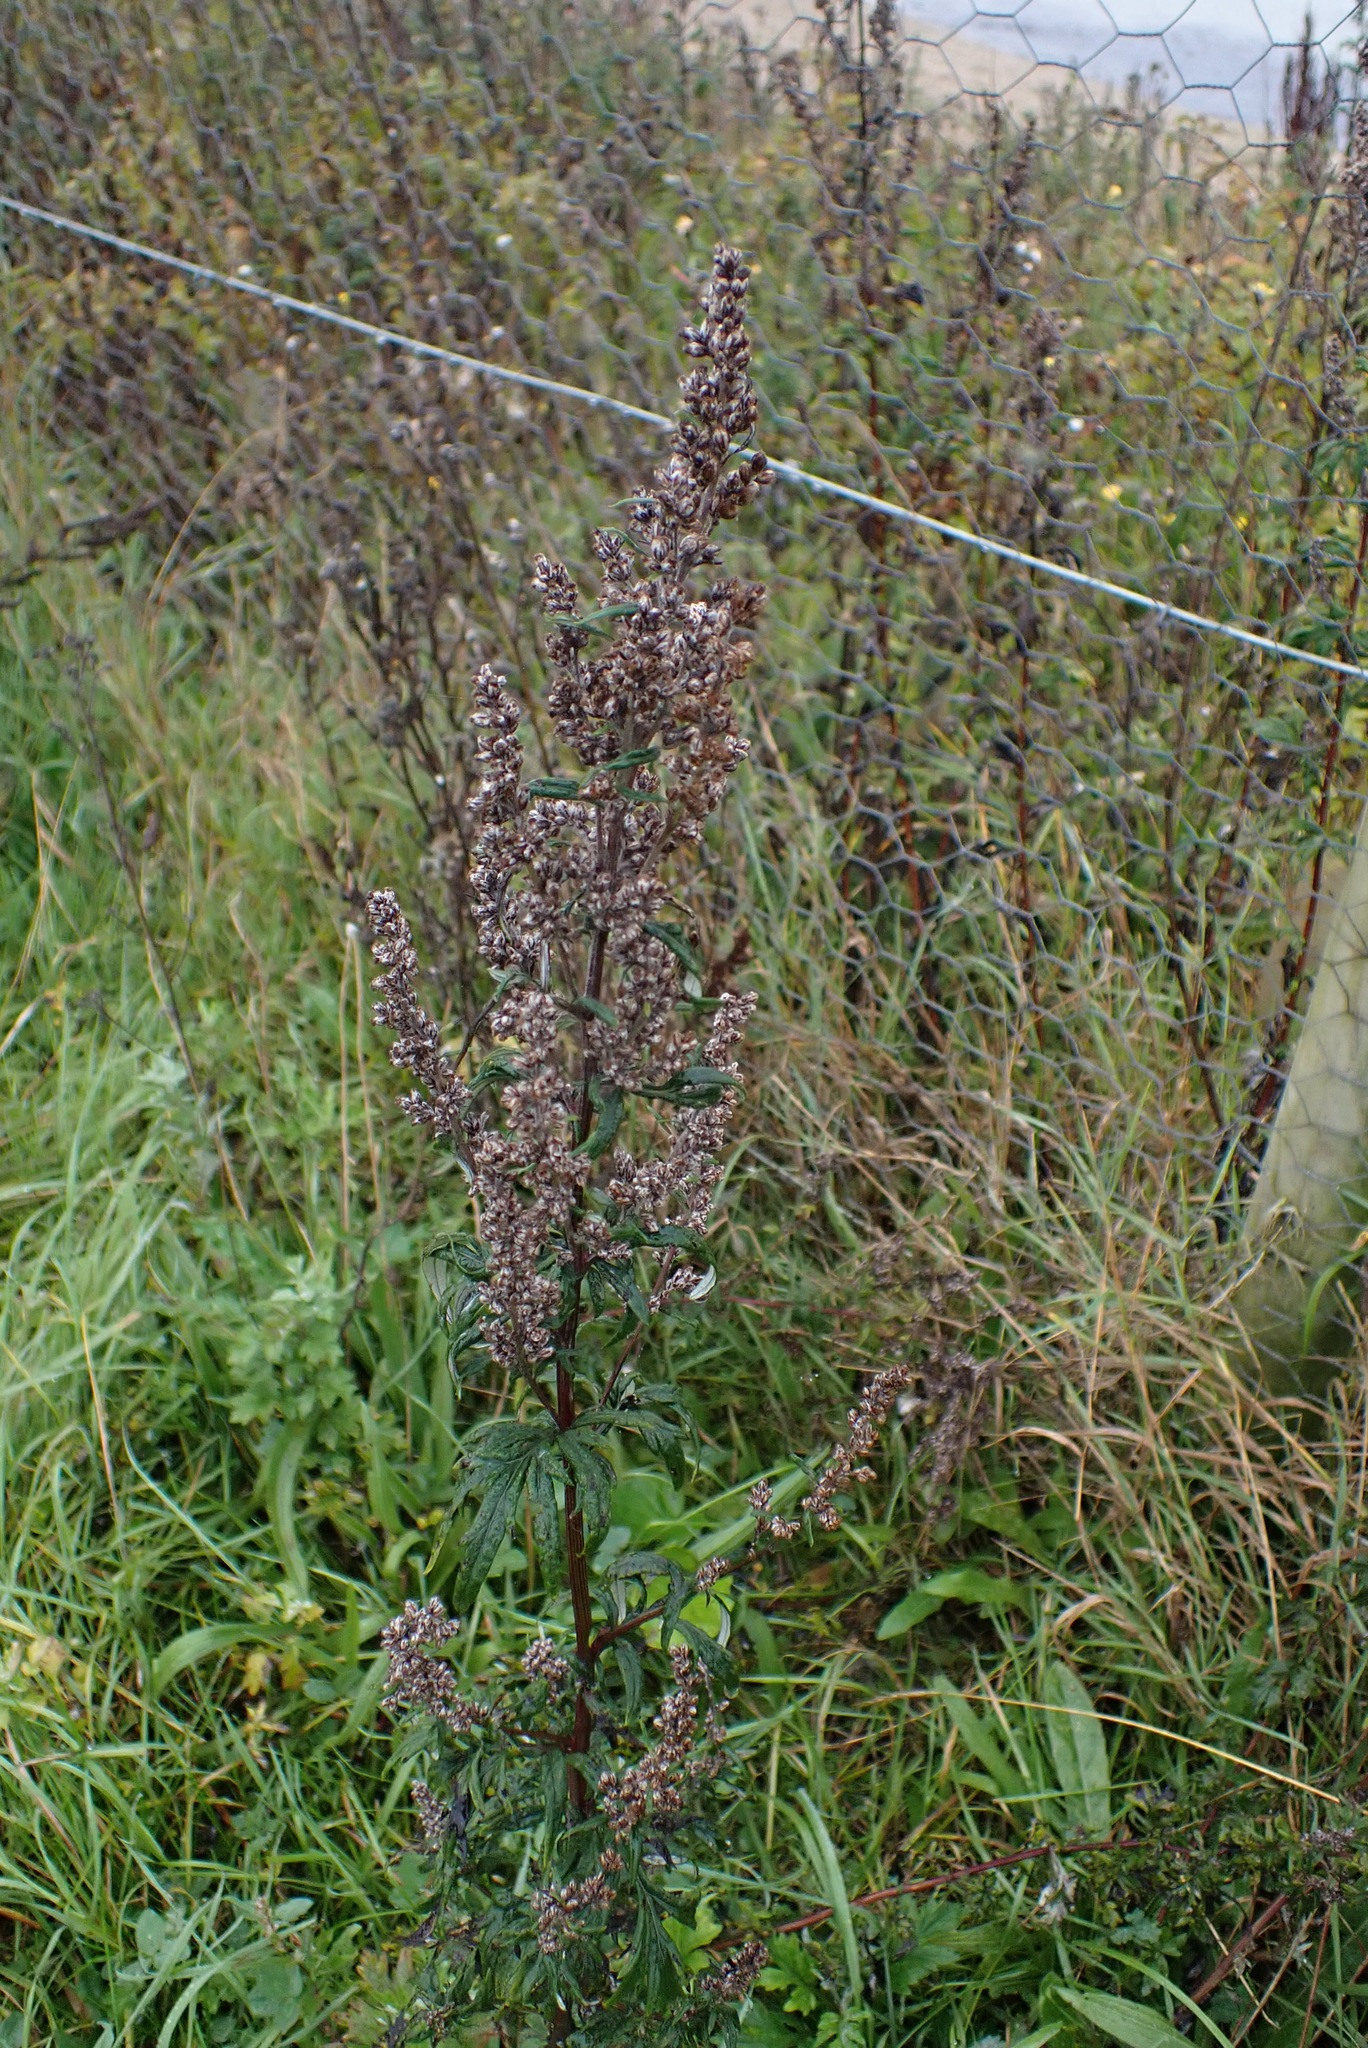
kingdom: Plantae
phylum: Tracheophyta
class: Magnoliopsida
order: Asterales
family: Asteraceae
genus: Artemisia
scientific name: Artemisia vulgaris
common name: Mugwort
